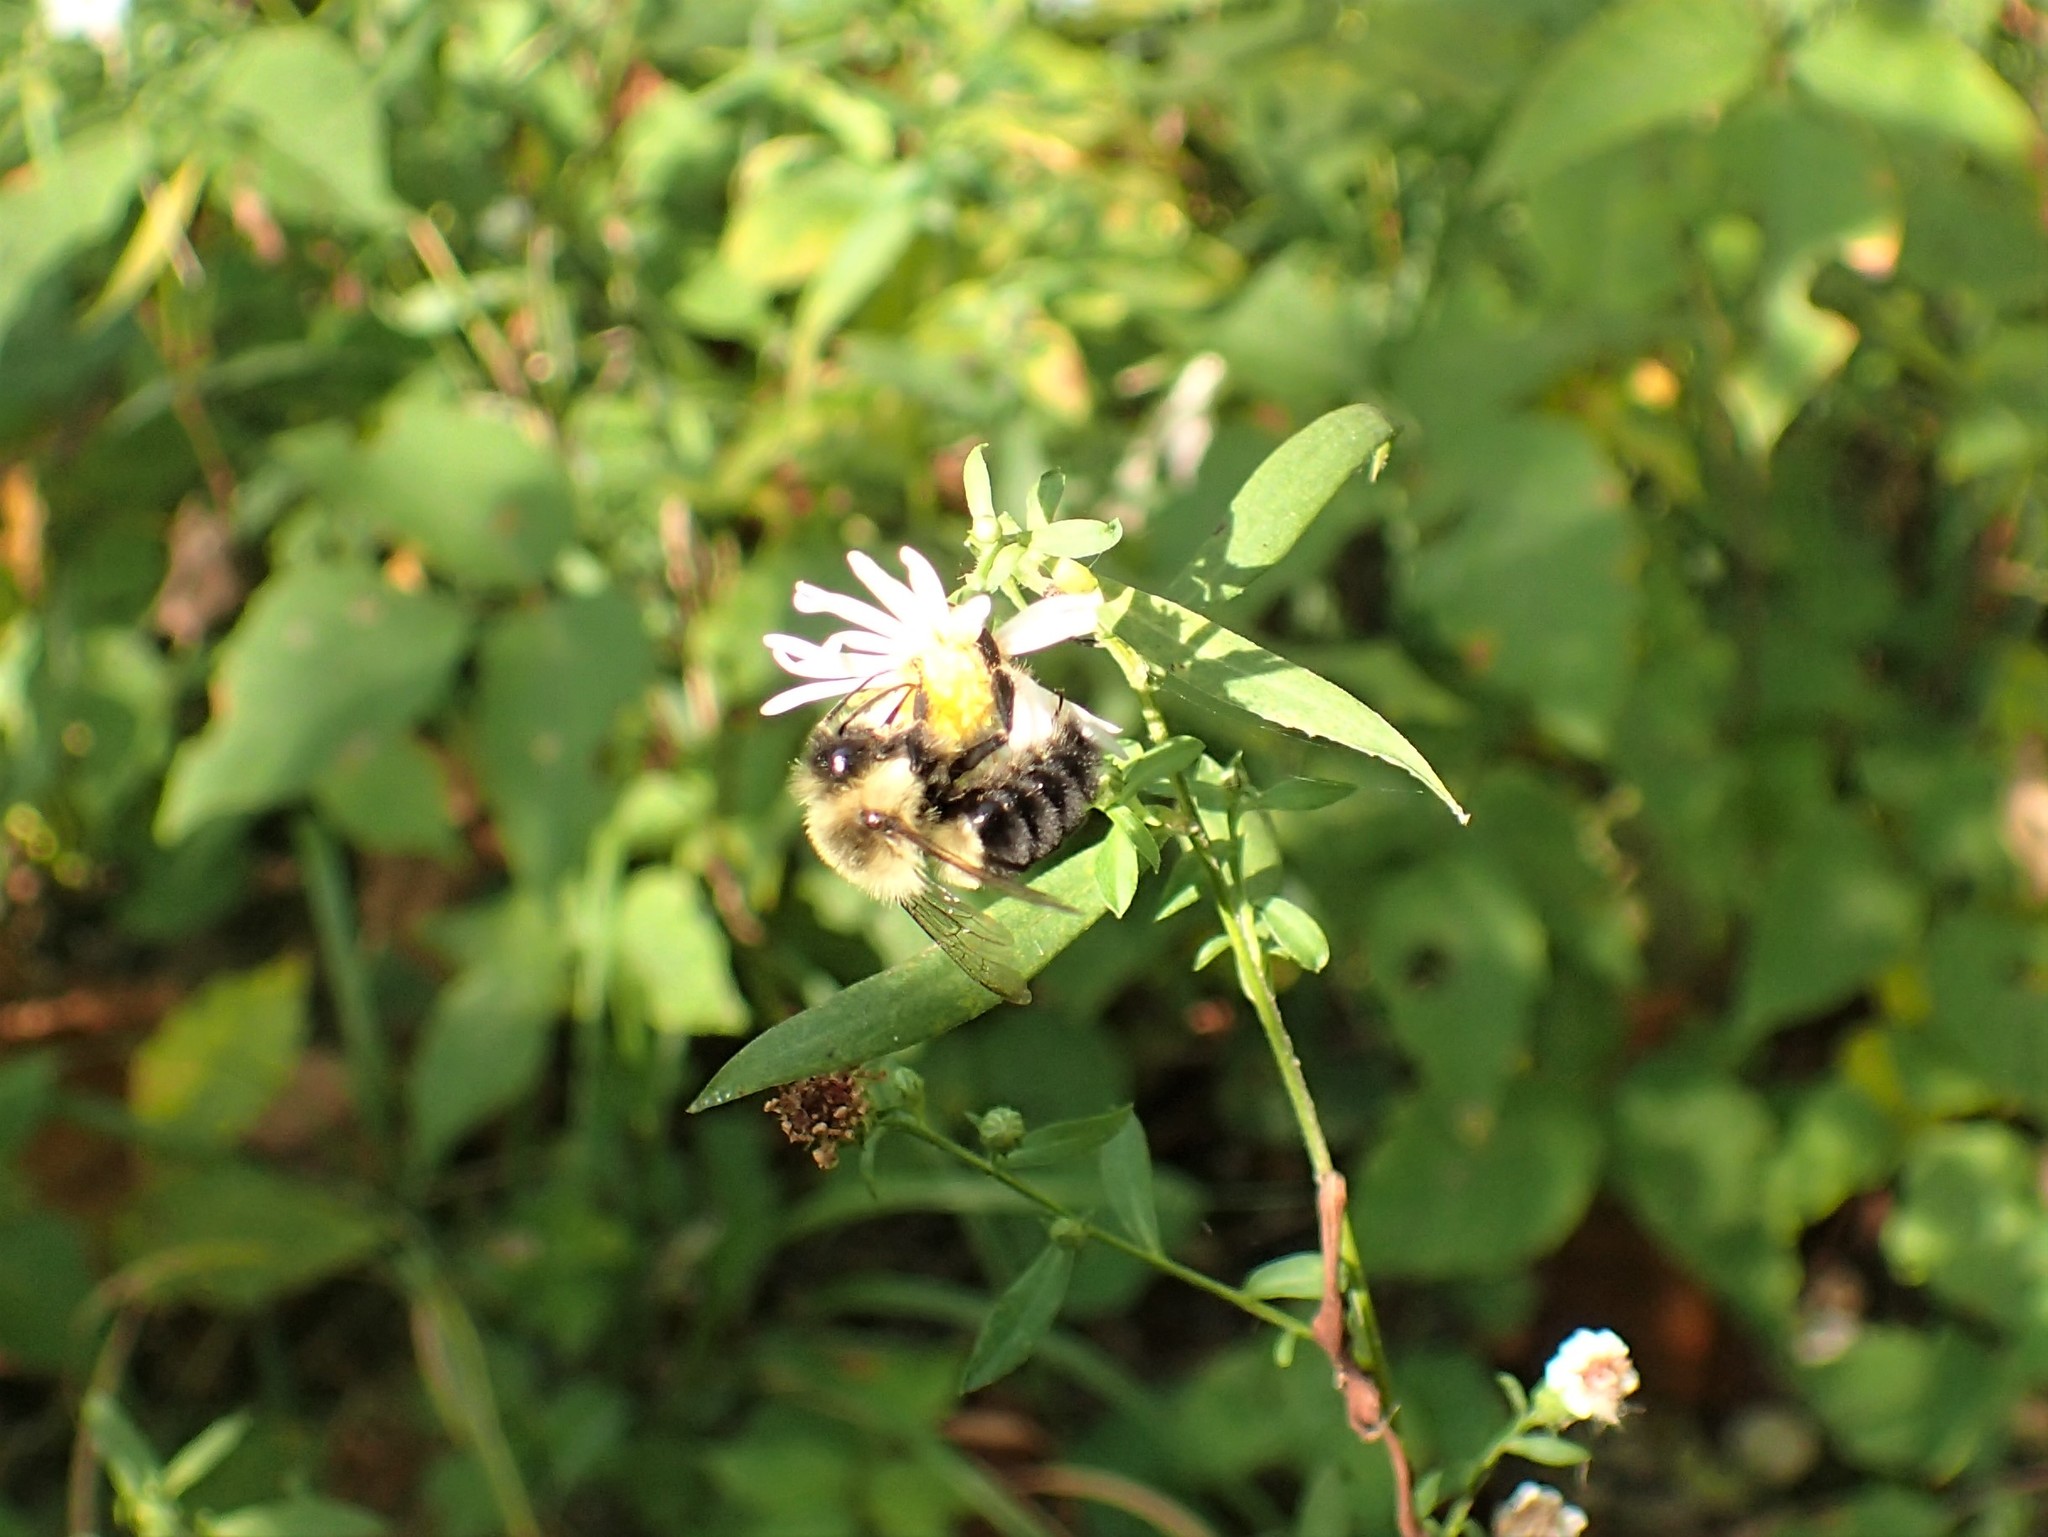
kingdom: Animalia
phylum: Arthropoda
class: Insecta
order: Hymenoptera
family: Apidae
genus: Bombus
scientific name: Bombus impatiens
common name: Common eastern bumble bee
